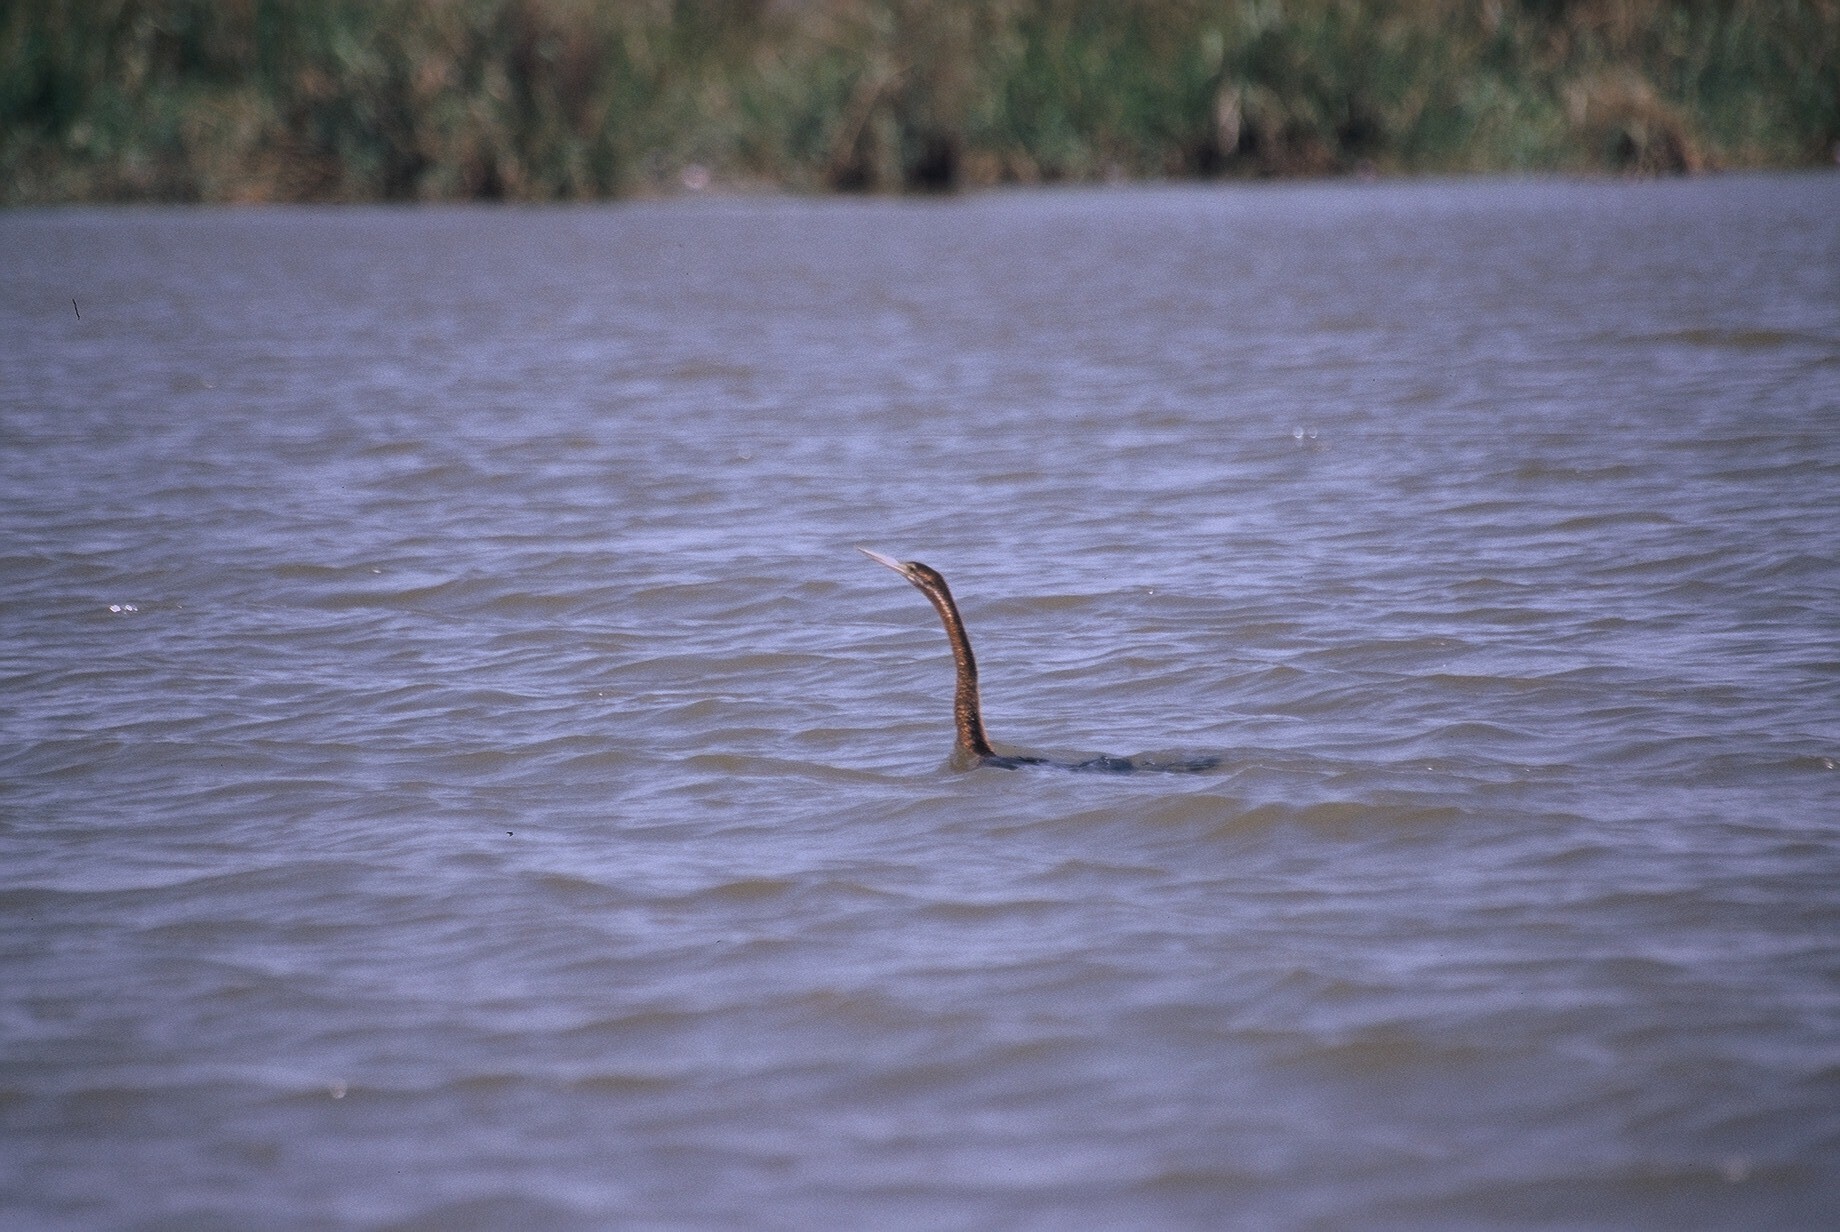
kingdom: Animalia
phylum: Chordata
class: Aves
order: Suliformes
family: Anhingidae
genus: Anhinga
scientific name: Anhinga rufa
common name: African darter
